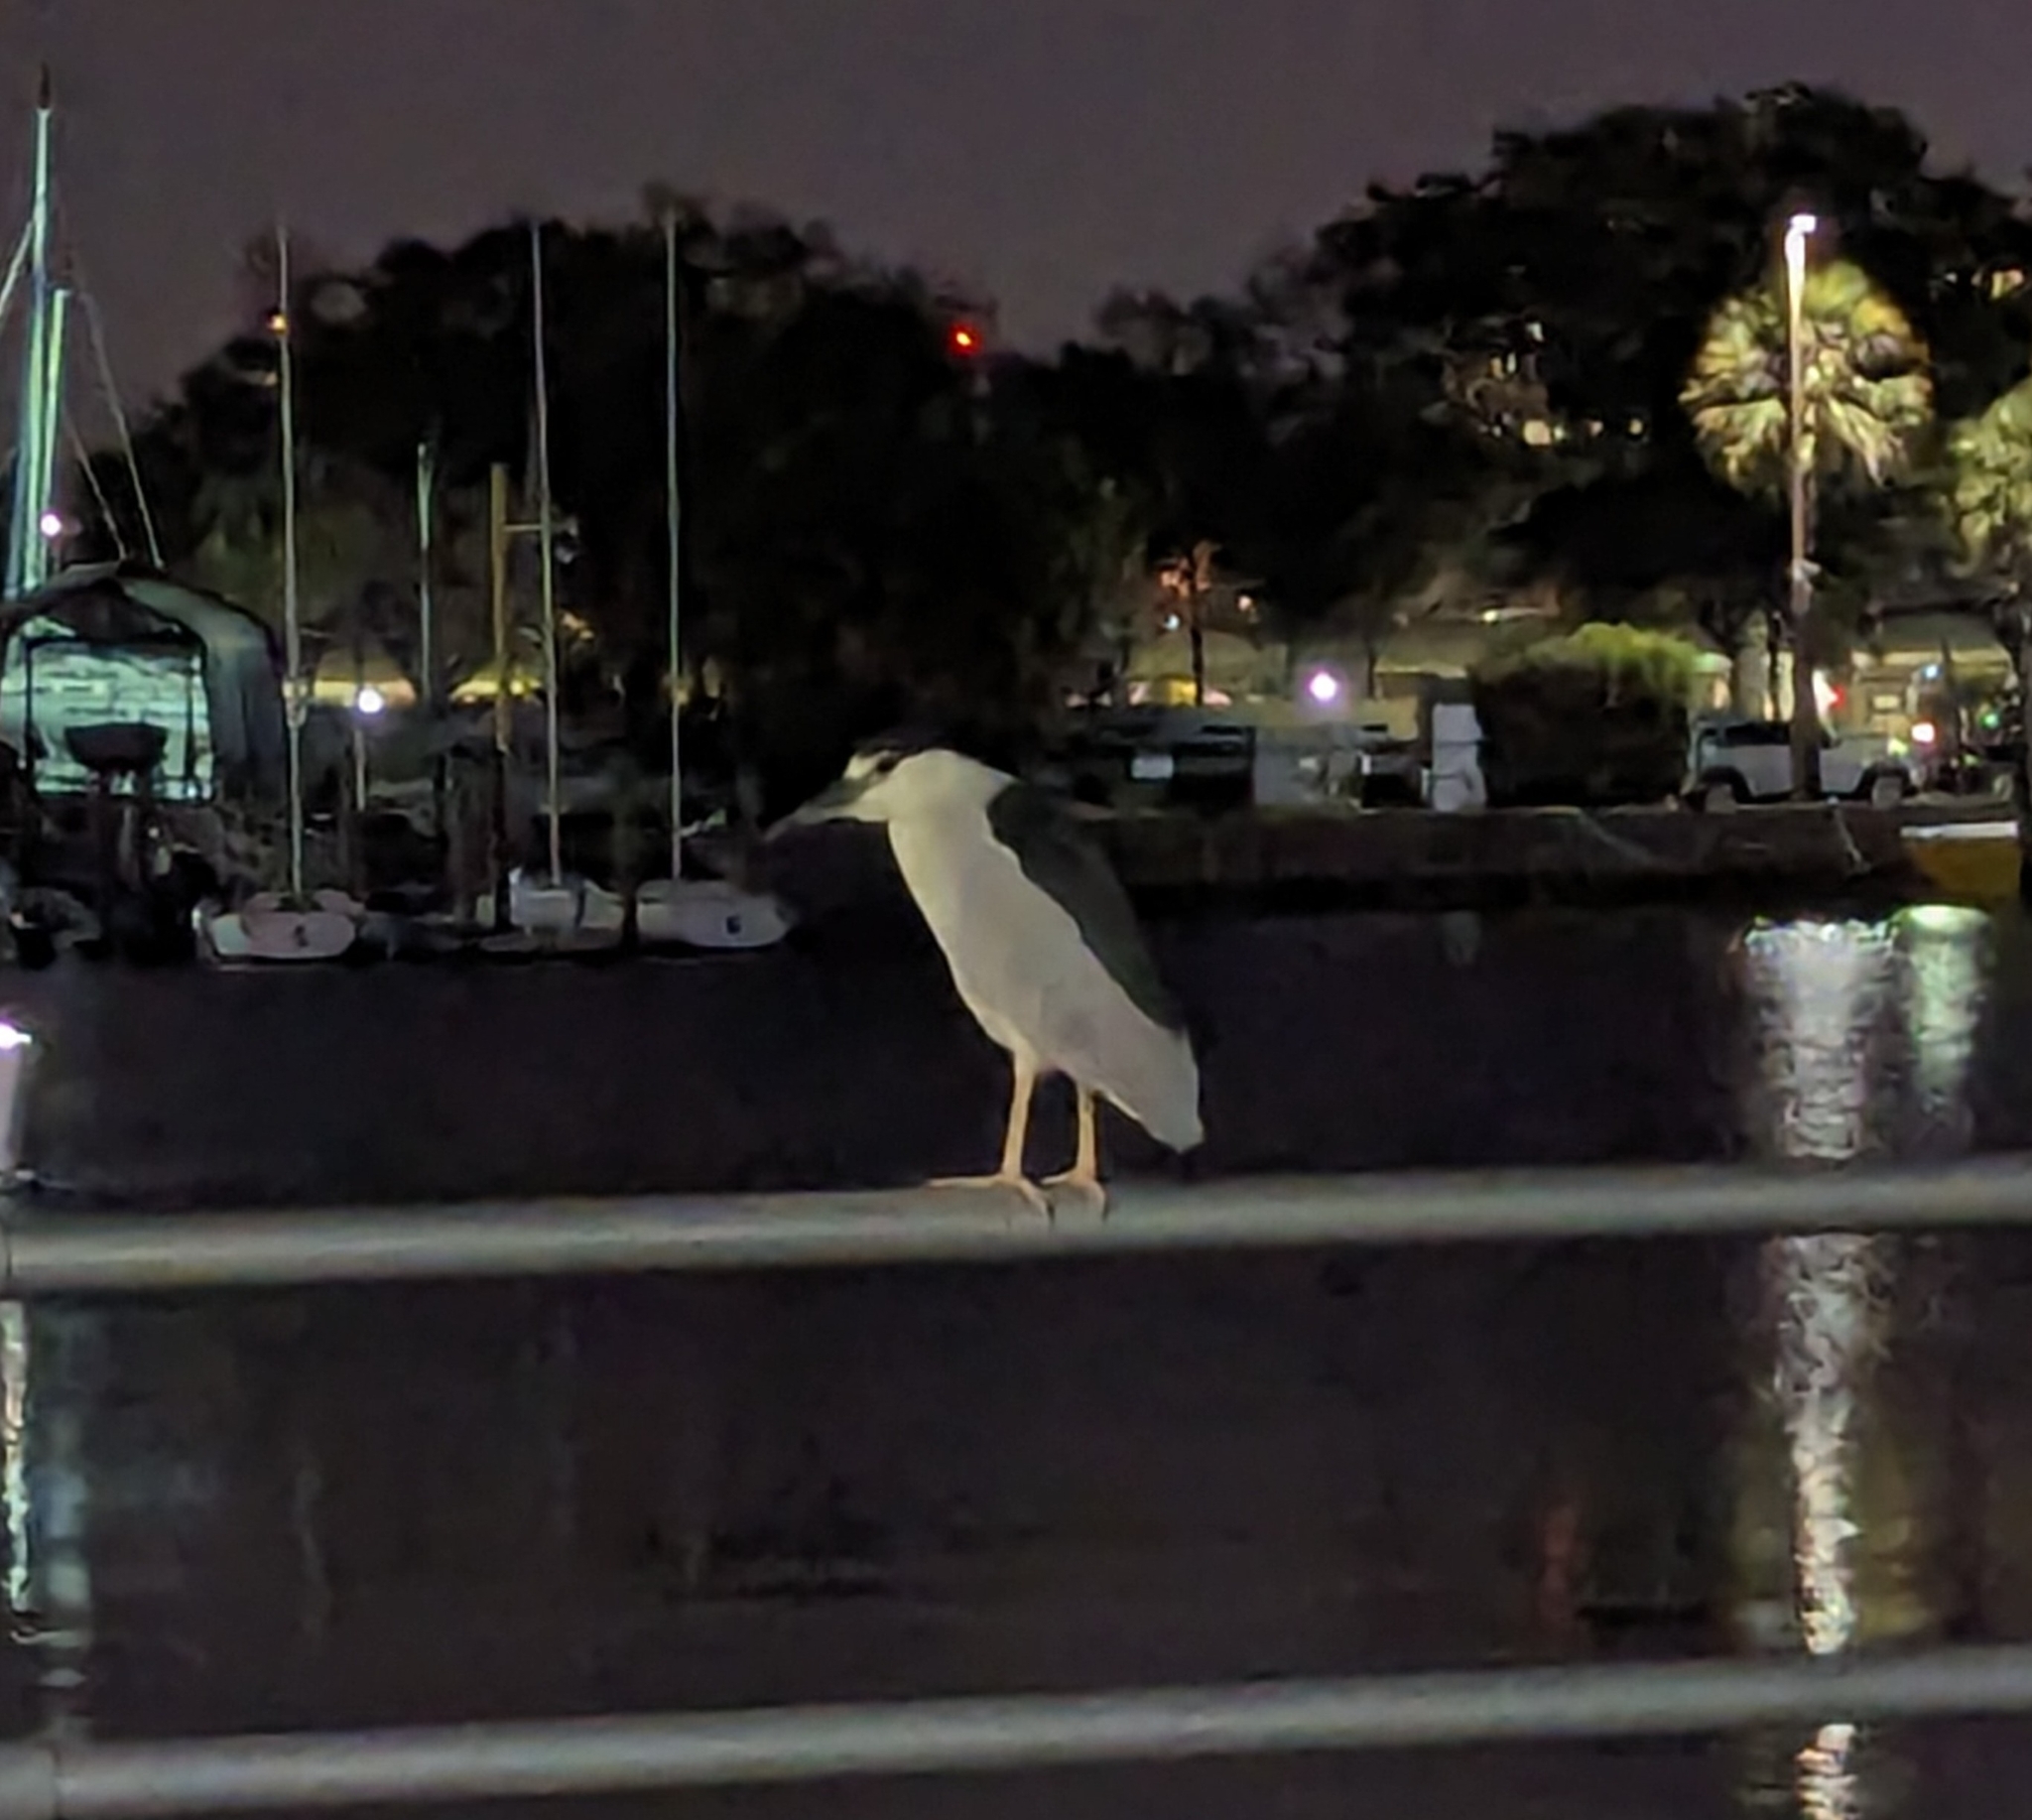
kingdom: Animalia
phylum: Chordata
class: Aves
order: Pelecaniformes
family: Ardeidae
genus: Nycticorax
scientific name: Nycticorax nycticorax
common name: Black-crowned night heron
